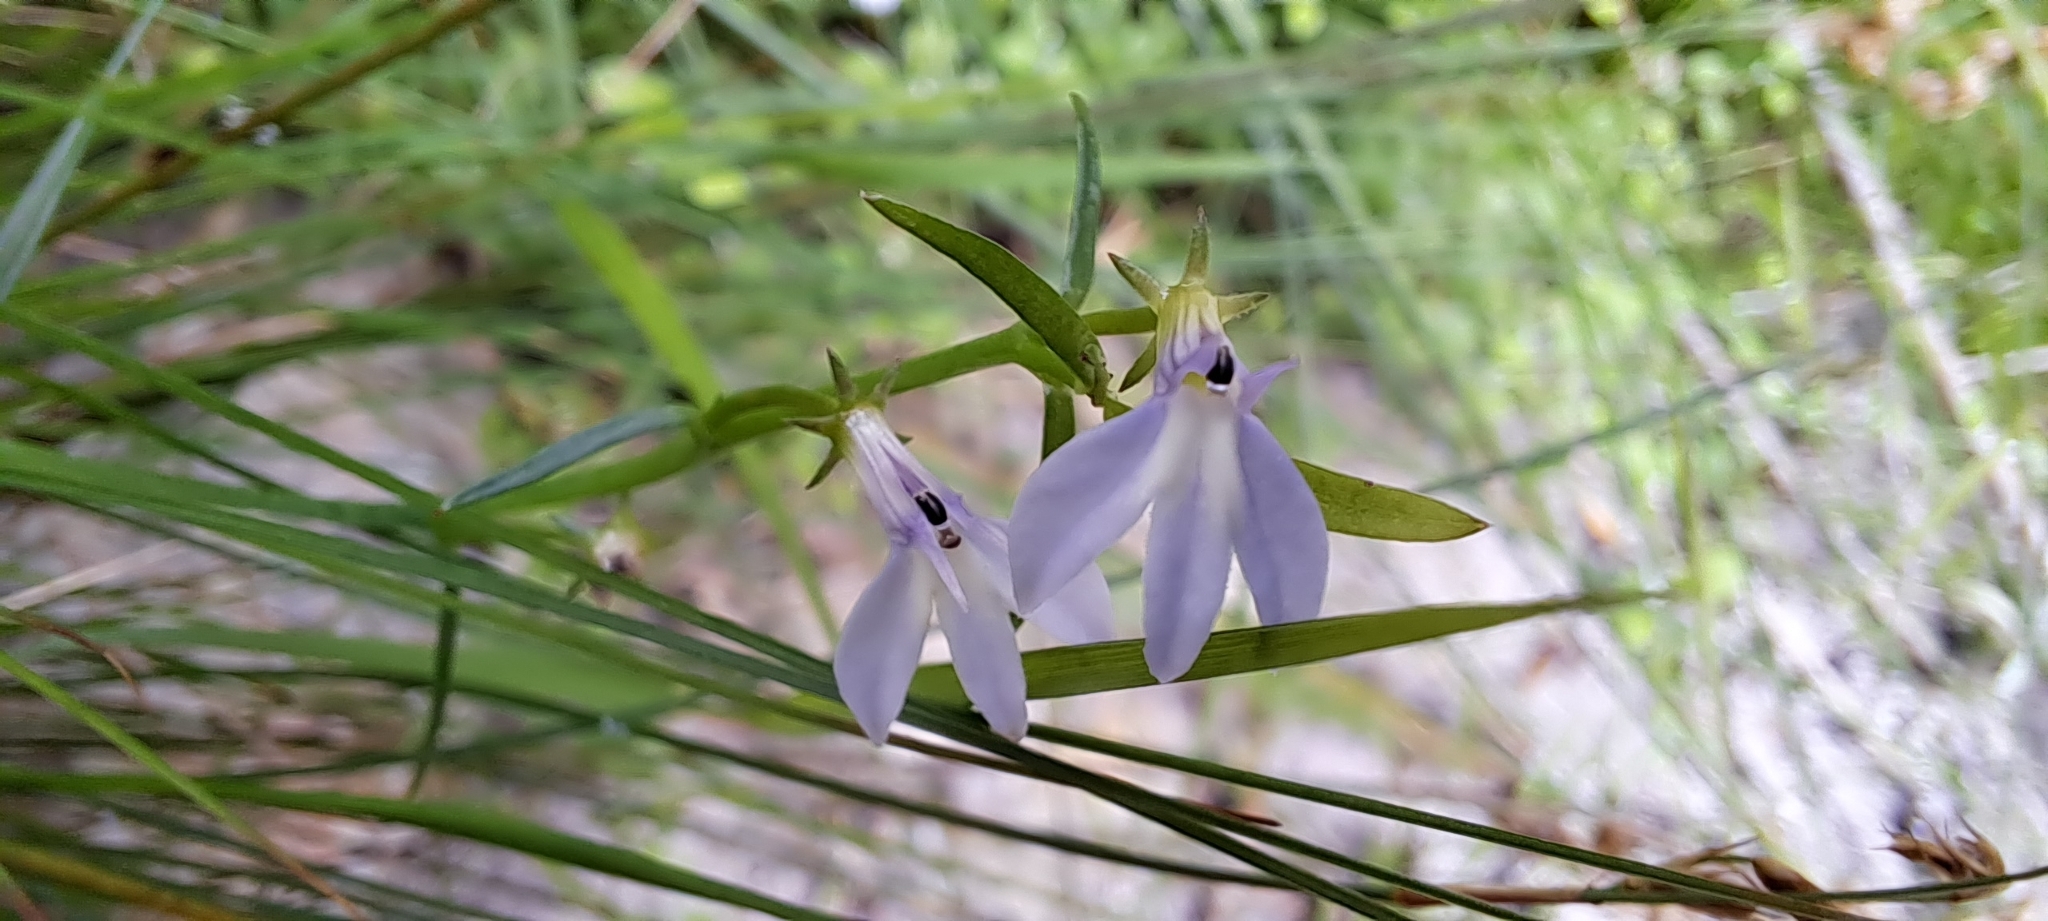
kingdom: Plantae
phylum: Tracheophyta
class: Magnoliopsida
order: Asterales
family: Campanulaceae
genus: Grammatotheca
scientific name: Grammatotheca bergiana
